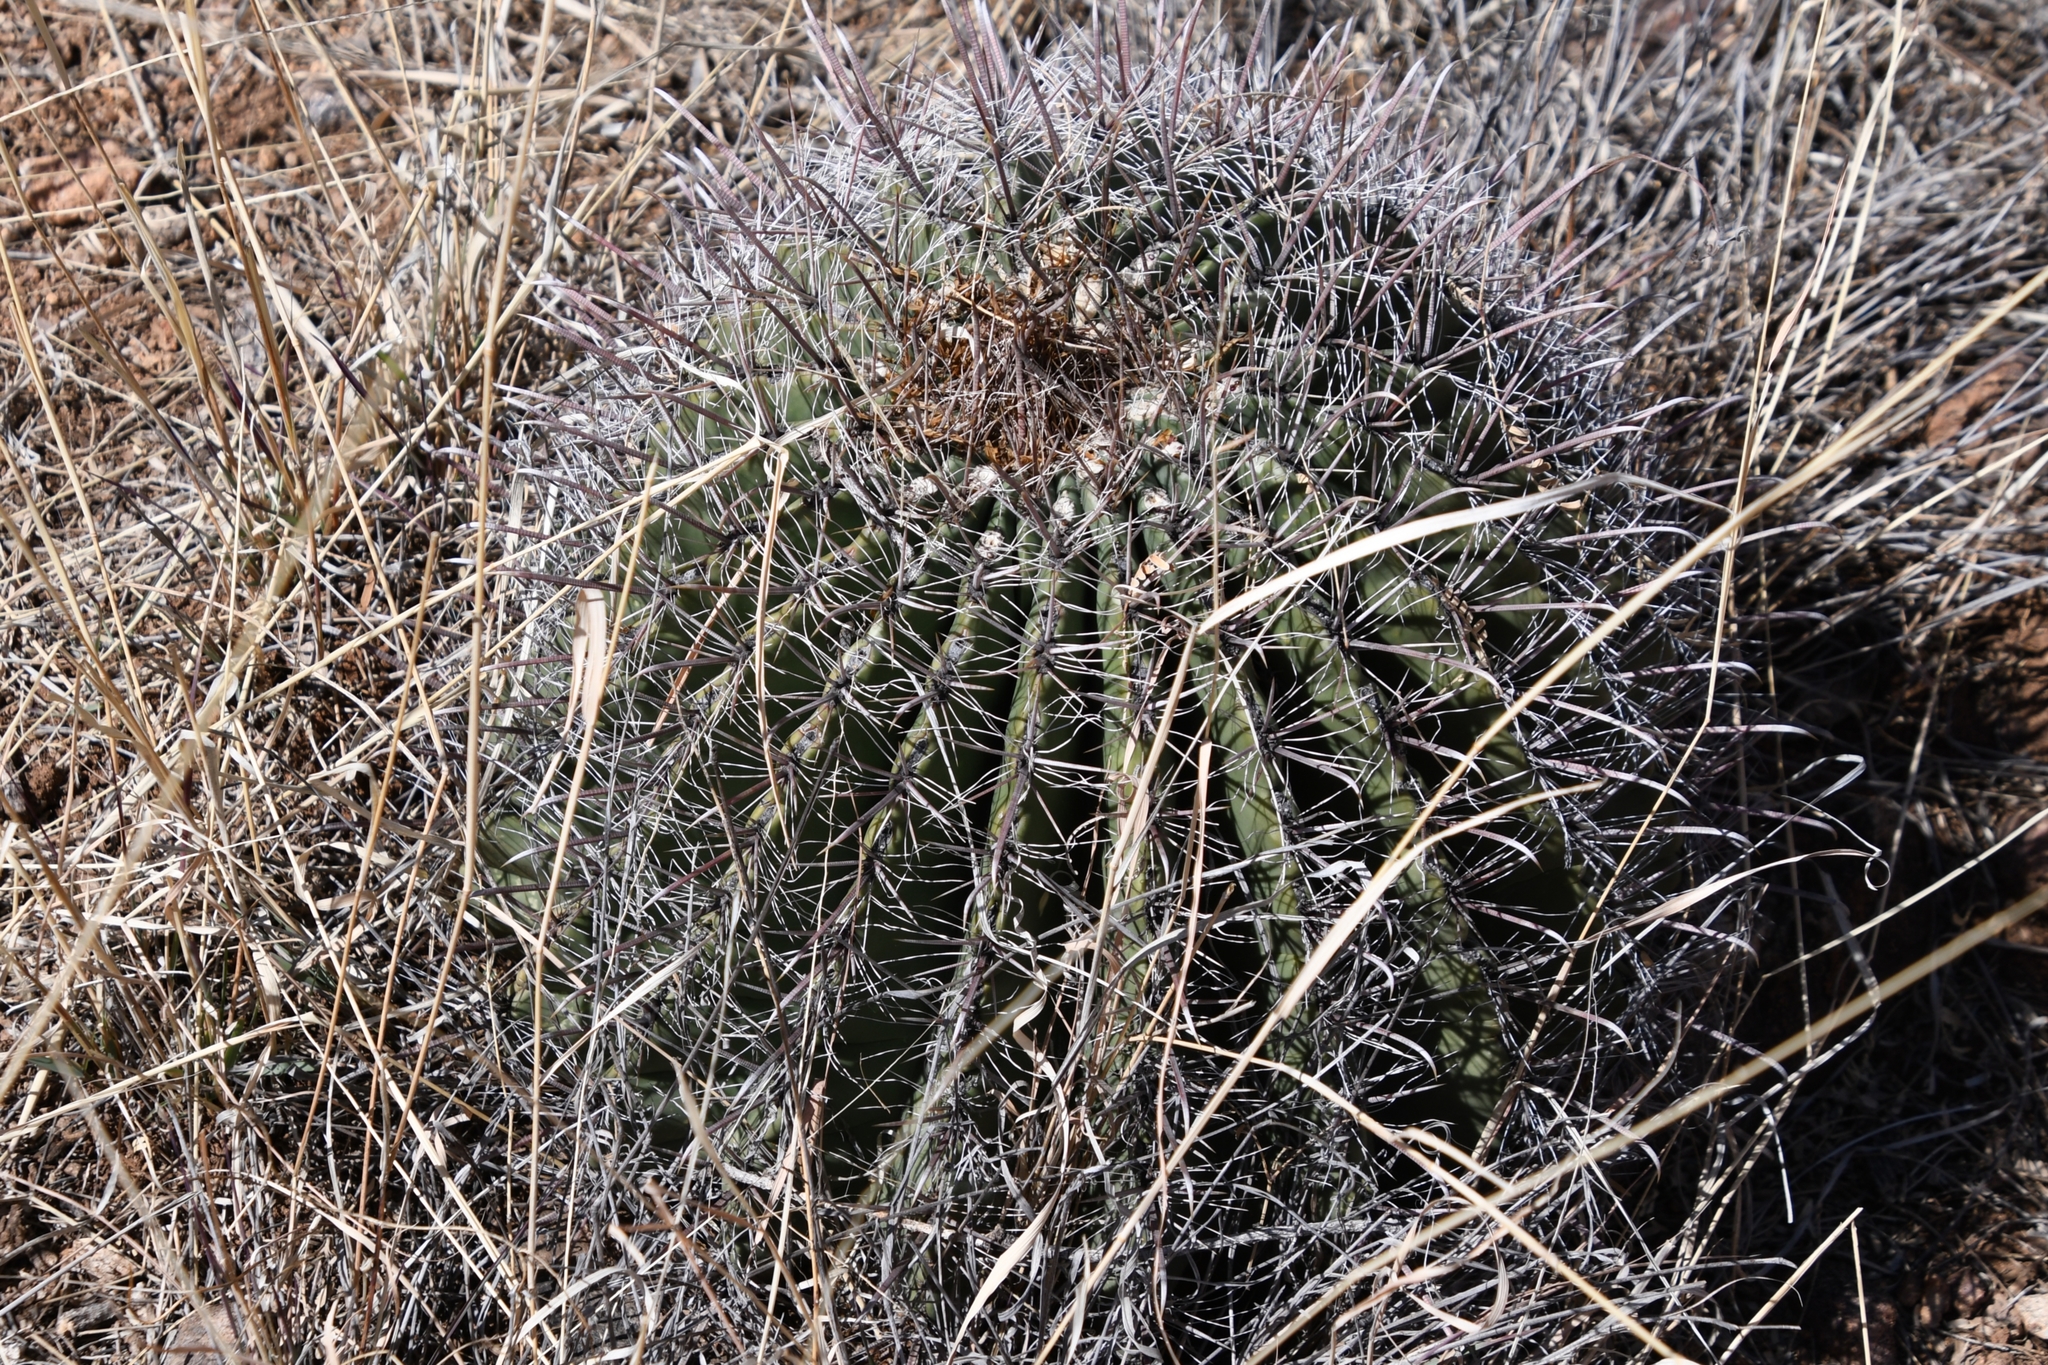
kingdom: Plantae
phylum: Tracheophyta
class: Magnoliopsida
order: Caryophyllales
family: Cactaceae
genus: Ferocactus
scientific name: Ferocactus wislizeni
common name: Candy barrel cactus
